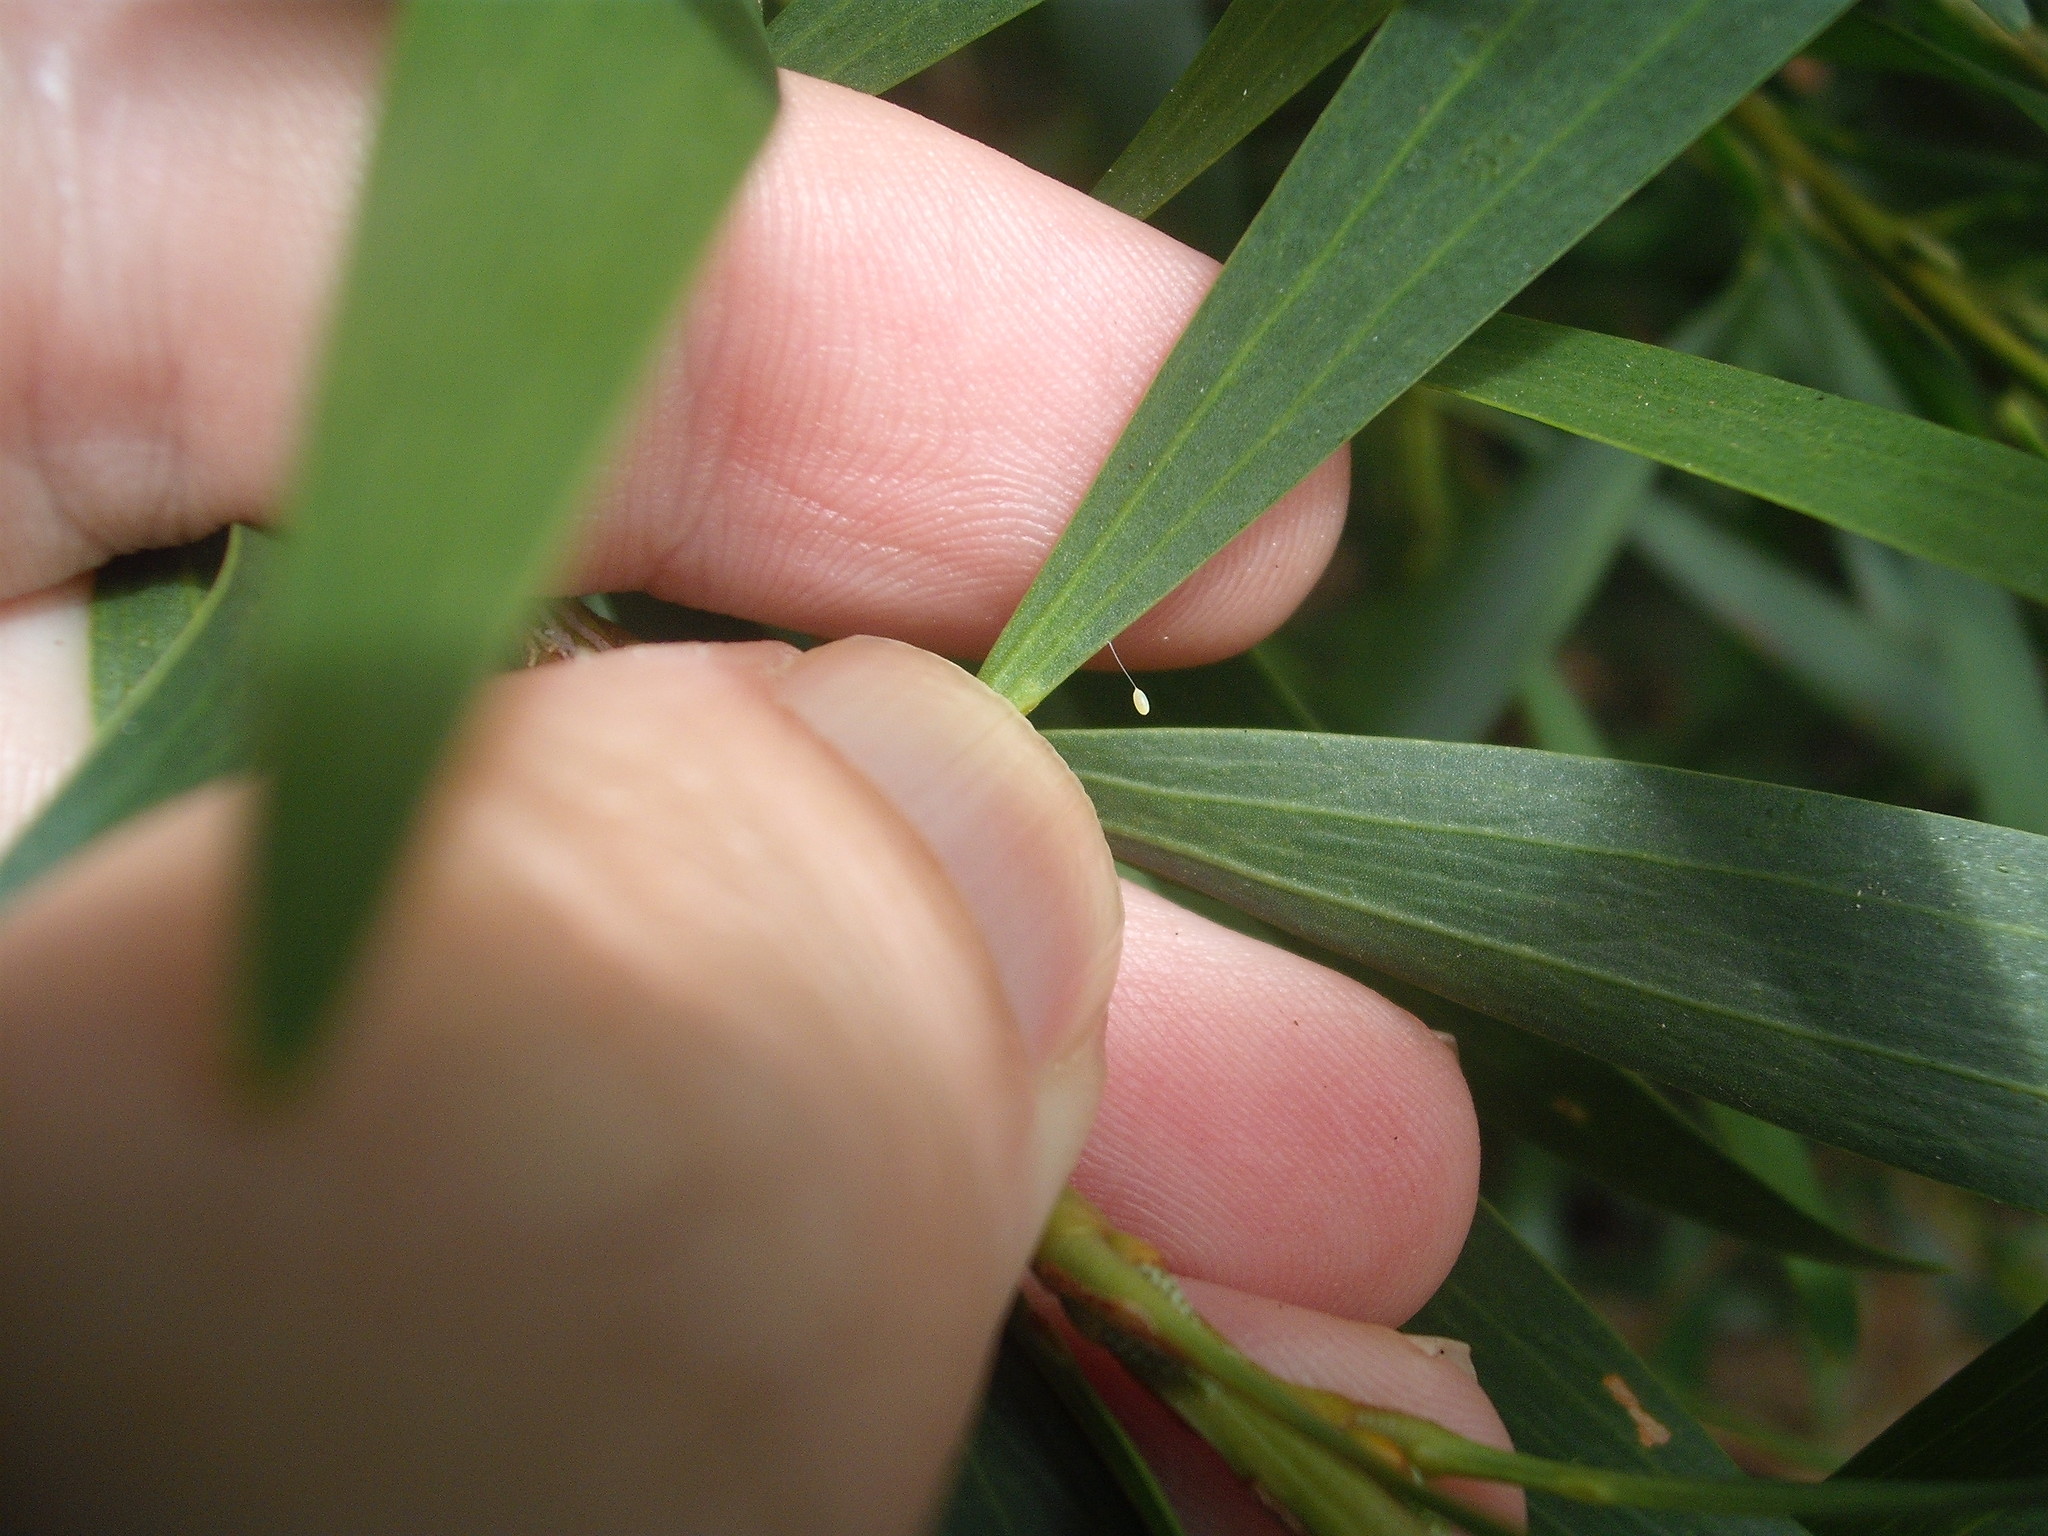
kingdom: Animalia
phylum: Arthropoda
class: Insecta
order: Neuroptera
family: Chrysopidae
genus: Mallada
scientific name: Mallada basalis
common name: Green lacewing
